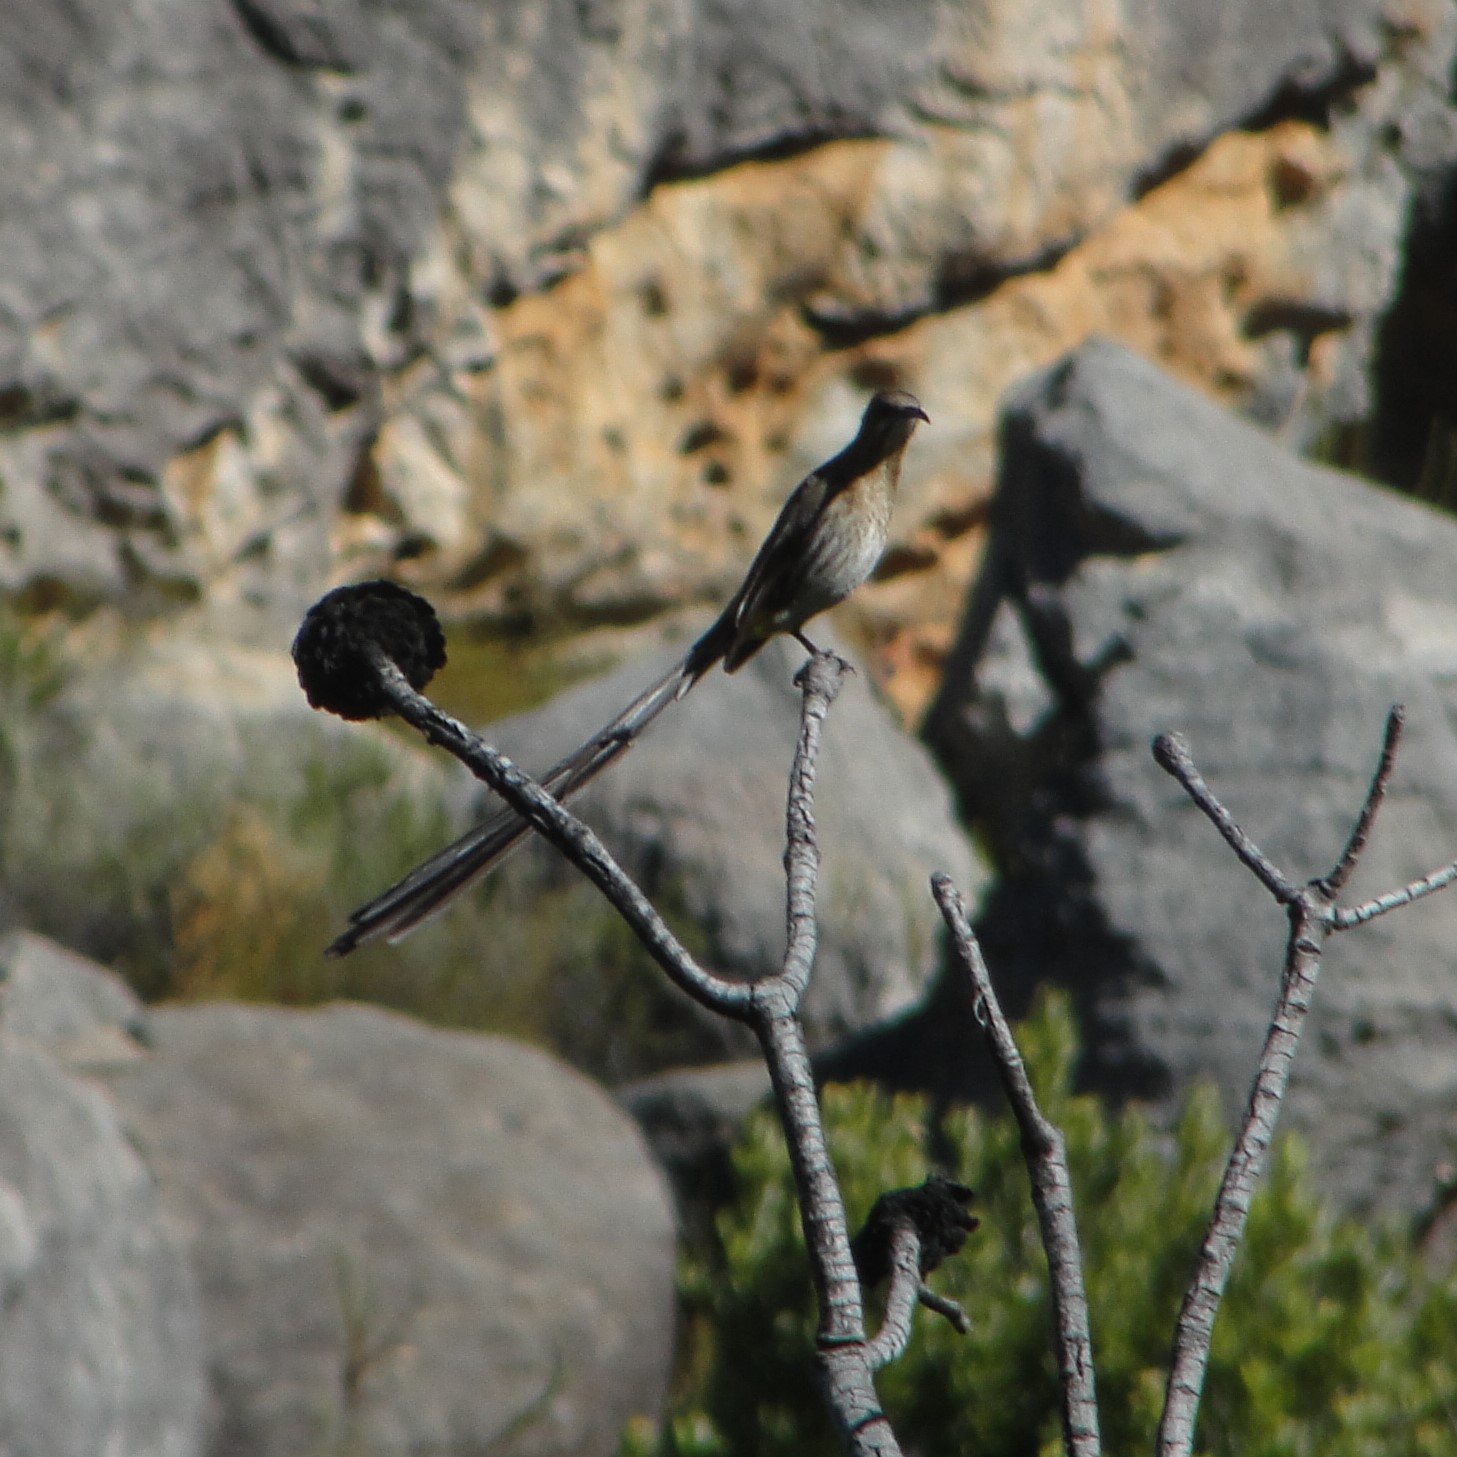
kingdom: Animalia
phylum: Chordata
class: Aves
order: Passeriformes
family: Promeropidae
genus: Promerops
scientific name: Promerops cafer
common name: Cape sugarbird
